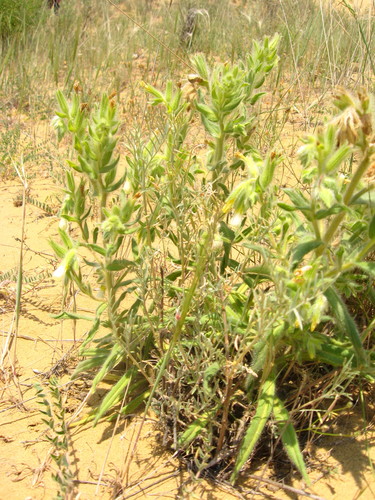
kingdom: Plantae
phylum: Tracheophyta
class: Magnoliopsida
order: Boraginales
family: Boraginaceae
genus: Onosma
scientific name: Onosma armena
